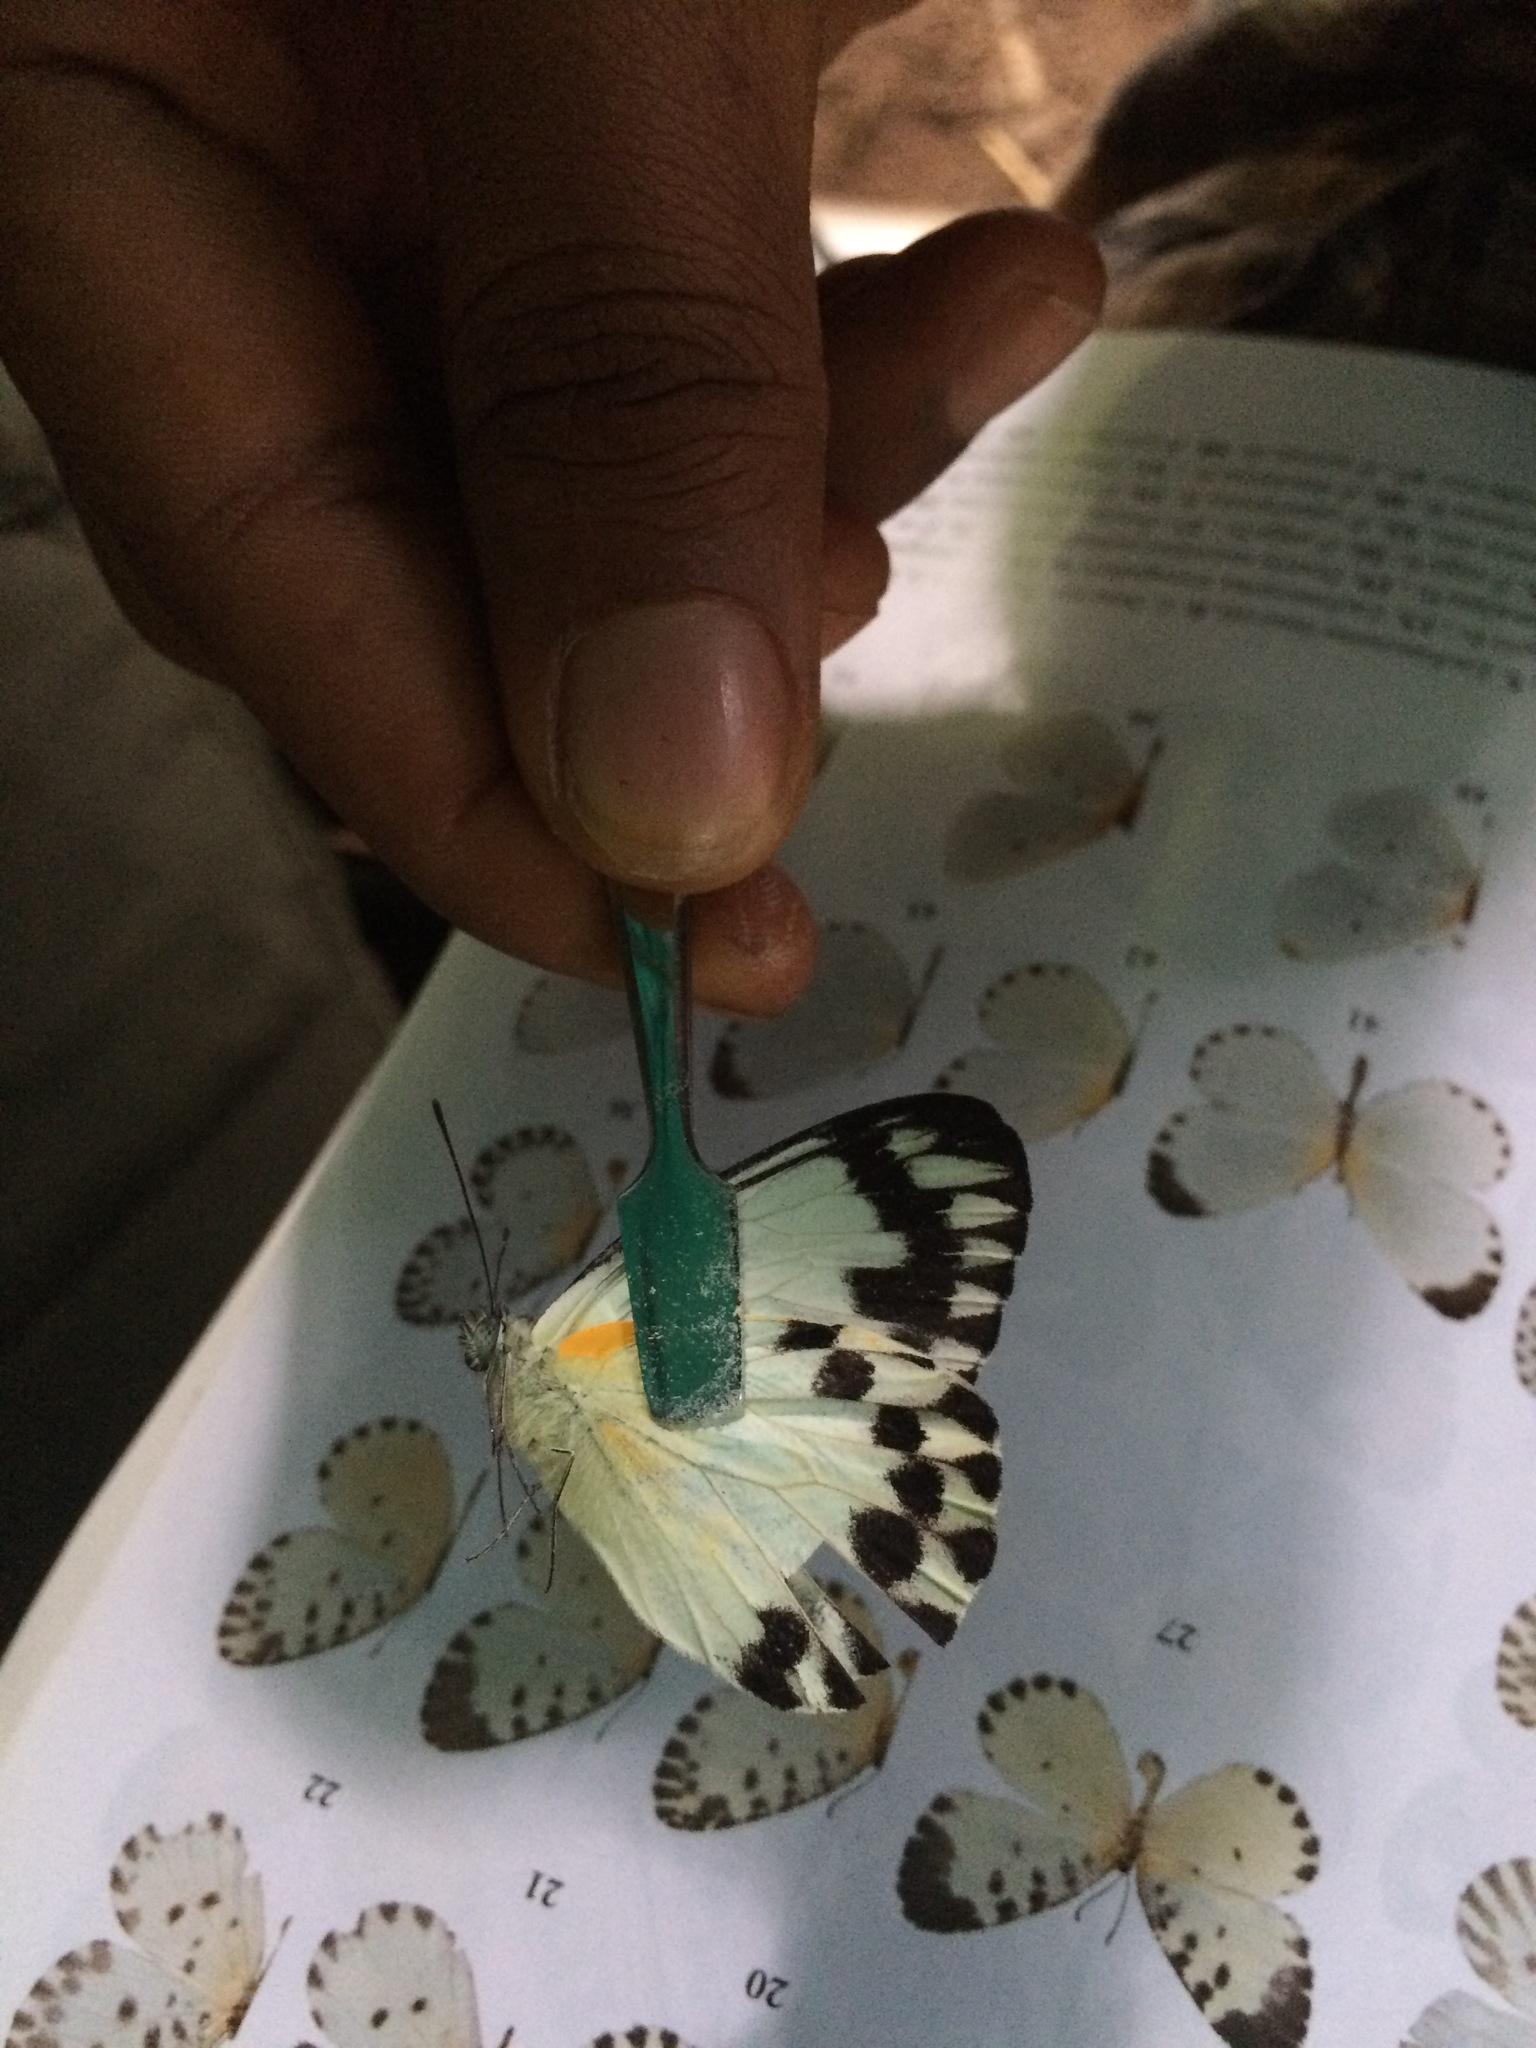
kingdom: Animalia
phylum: Arthropoda
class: Insecta
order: Lepidoptera
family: Pieridae
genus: Belenois
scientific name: Belenois theora
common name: Forest caper white
